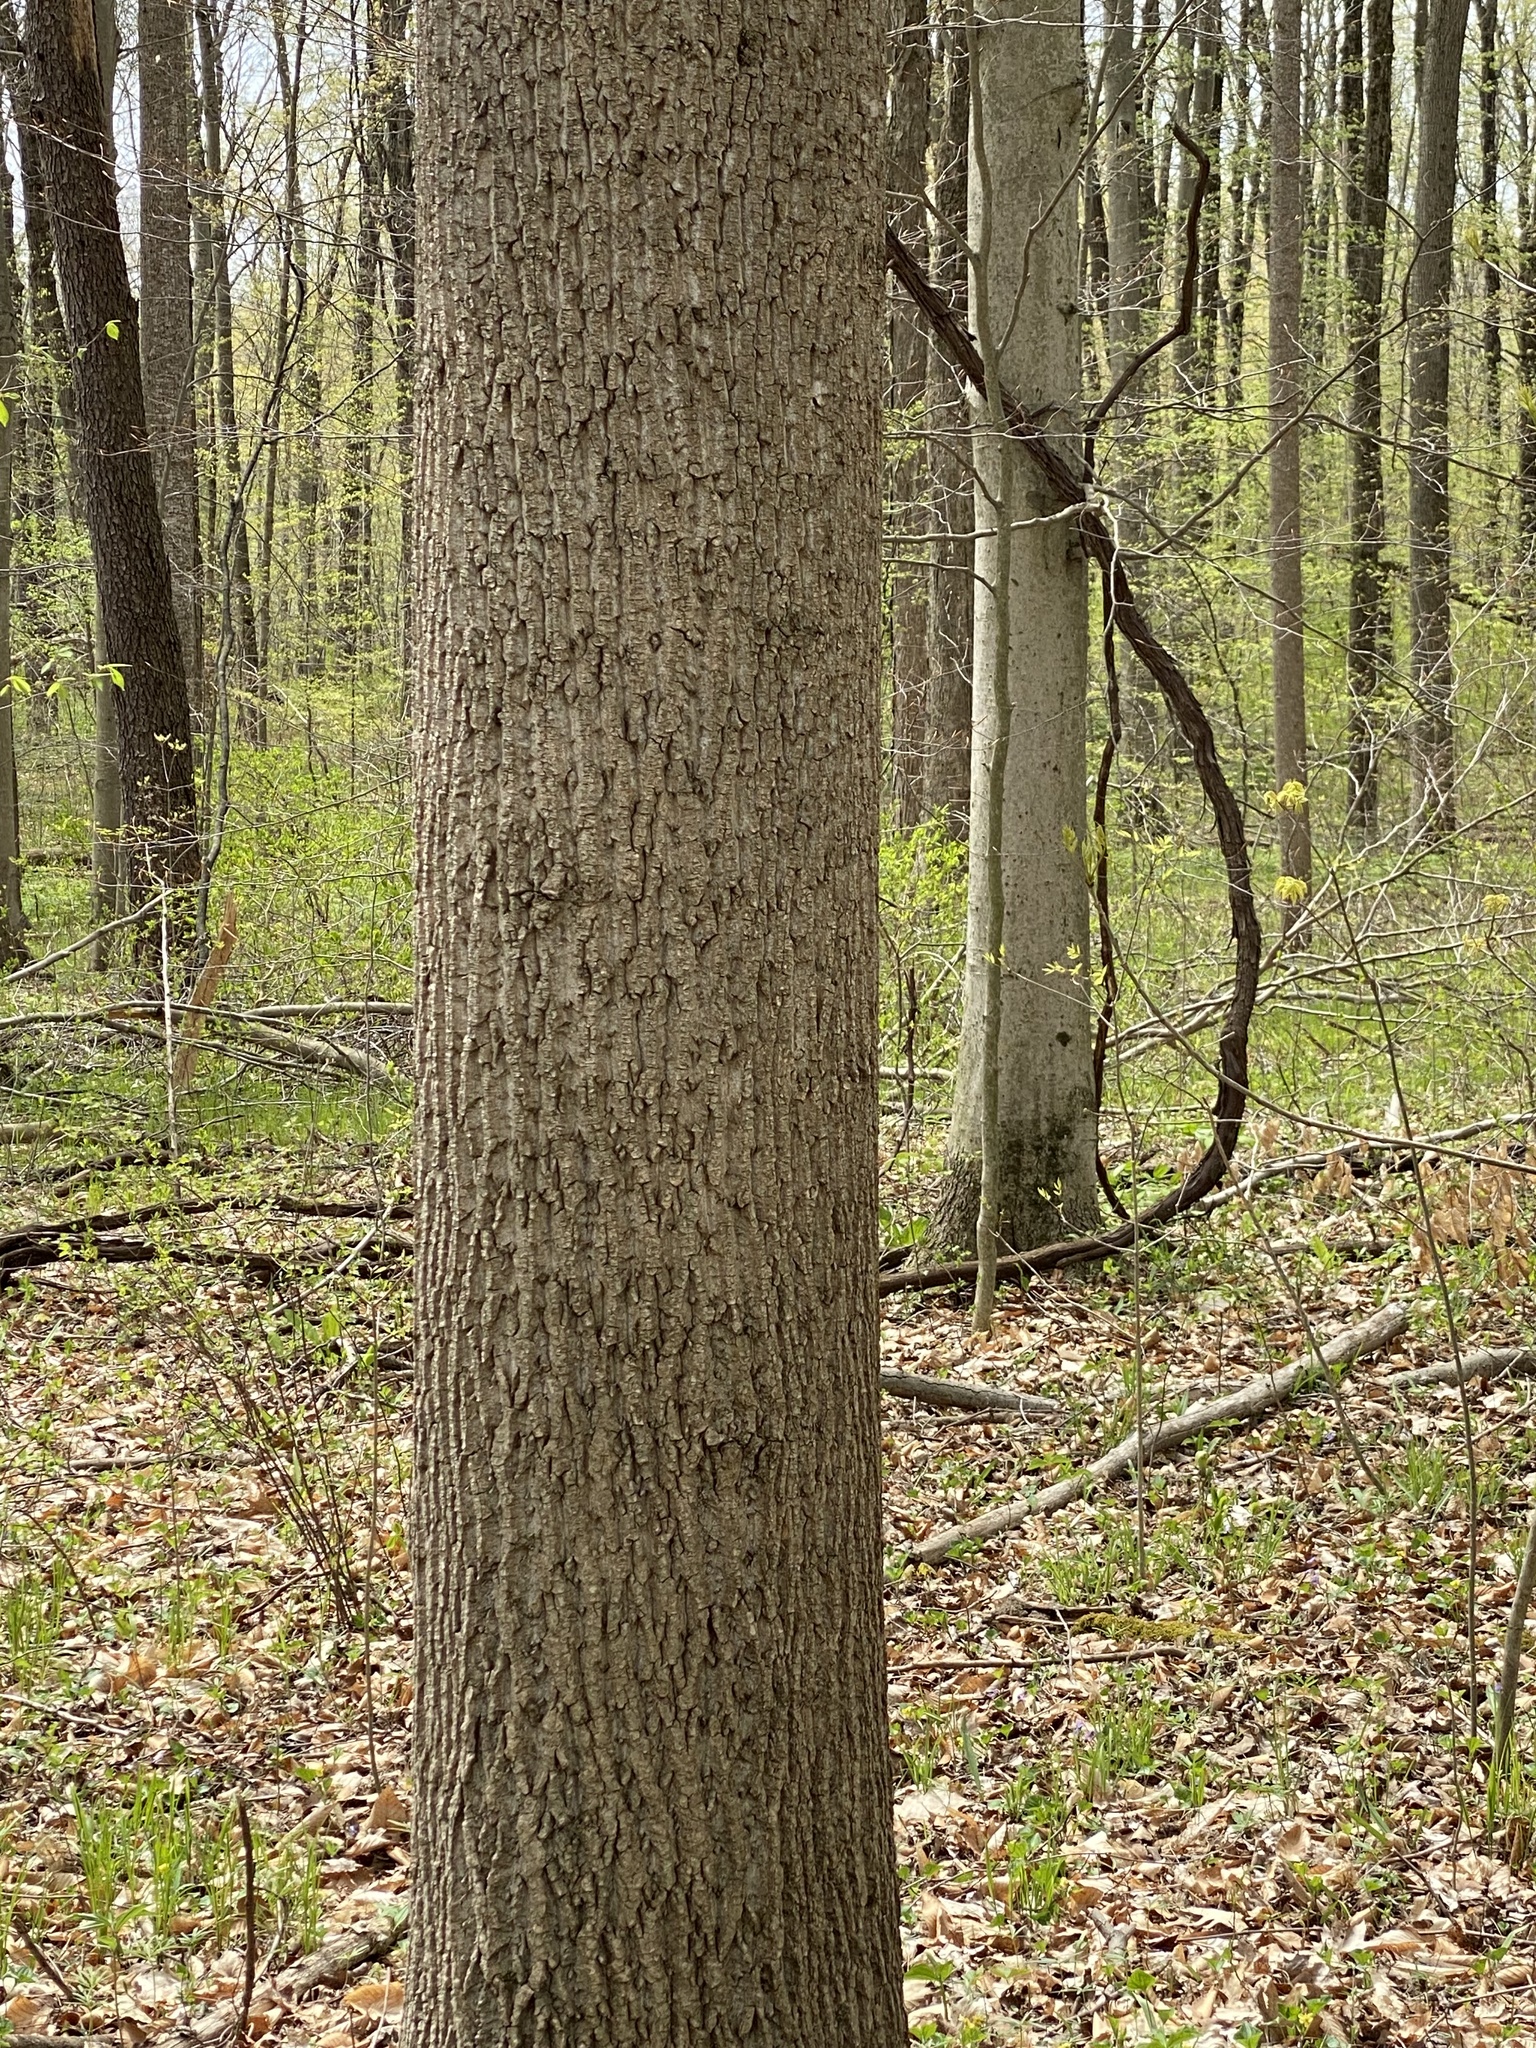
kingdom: Plantae
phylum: Tracheophyta
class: Magnoliopsida
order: Magnoliales
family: Magnoliaceae
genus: Liriodendron
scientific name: Liriodendron tulipifera
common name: Tulip tree
